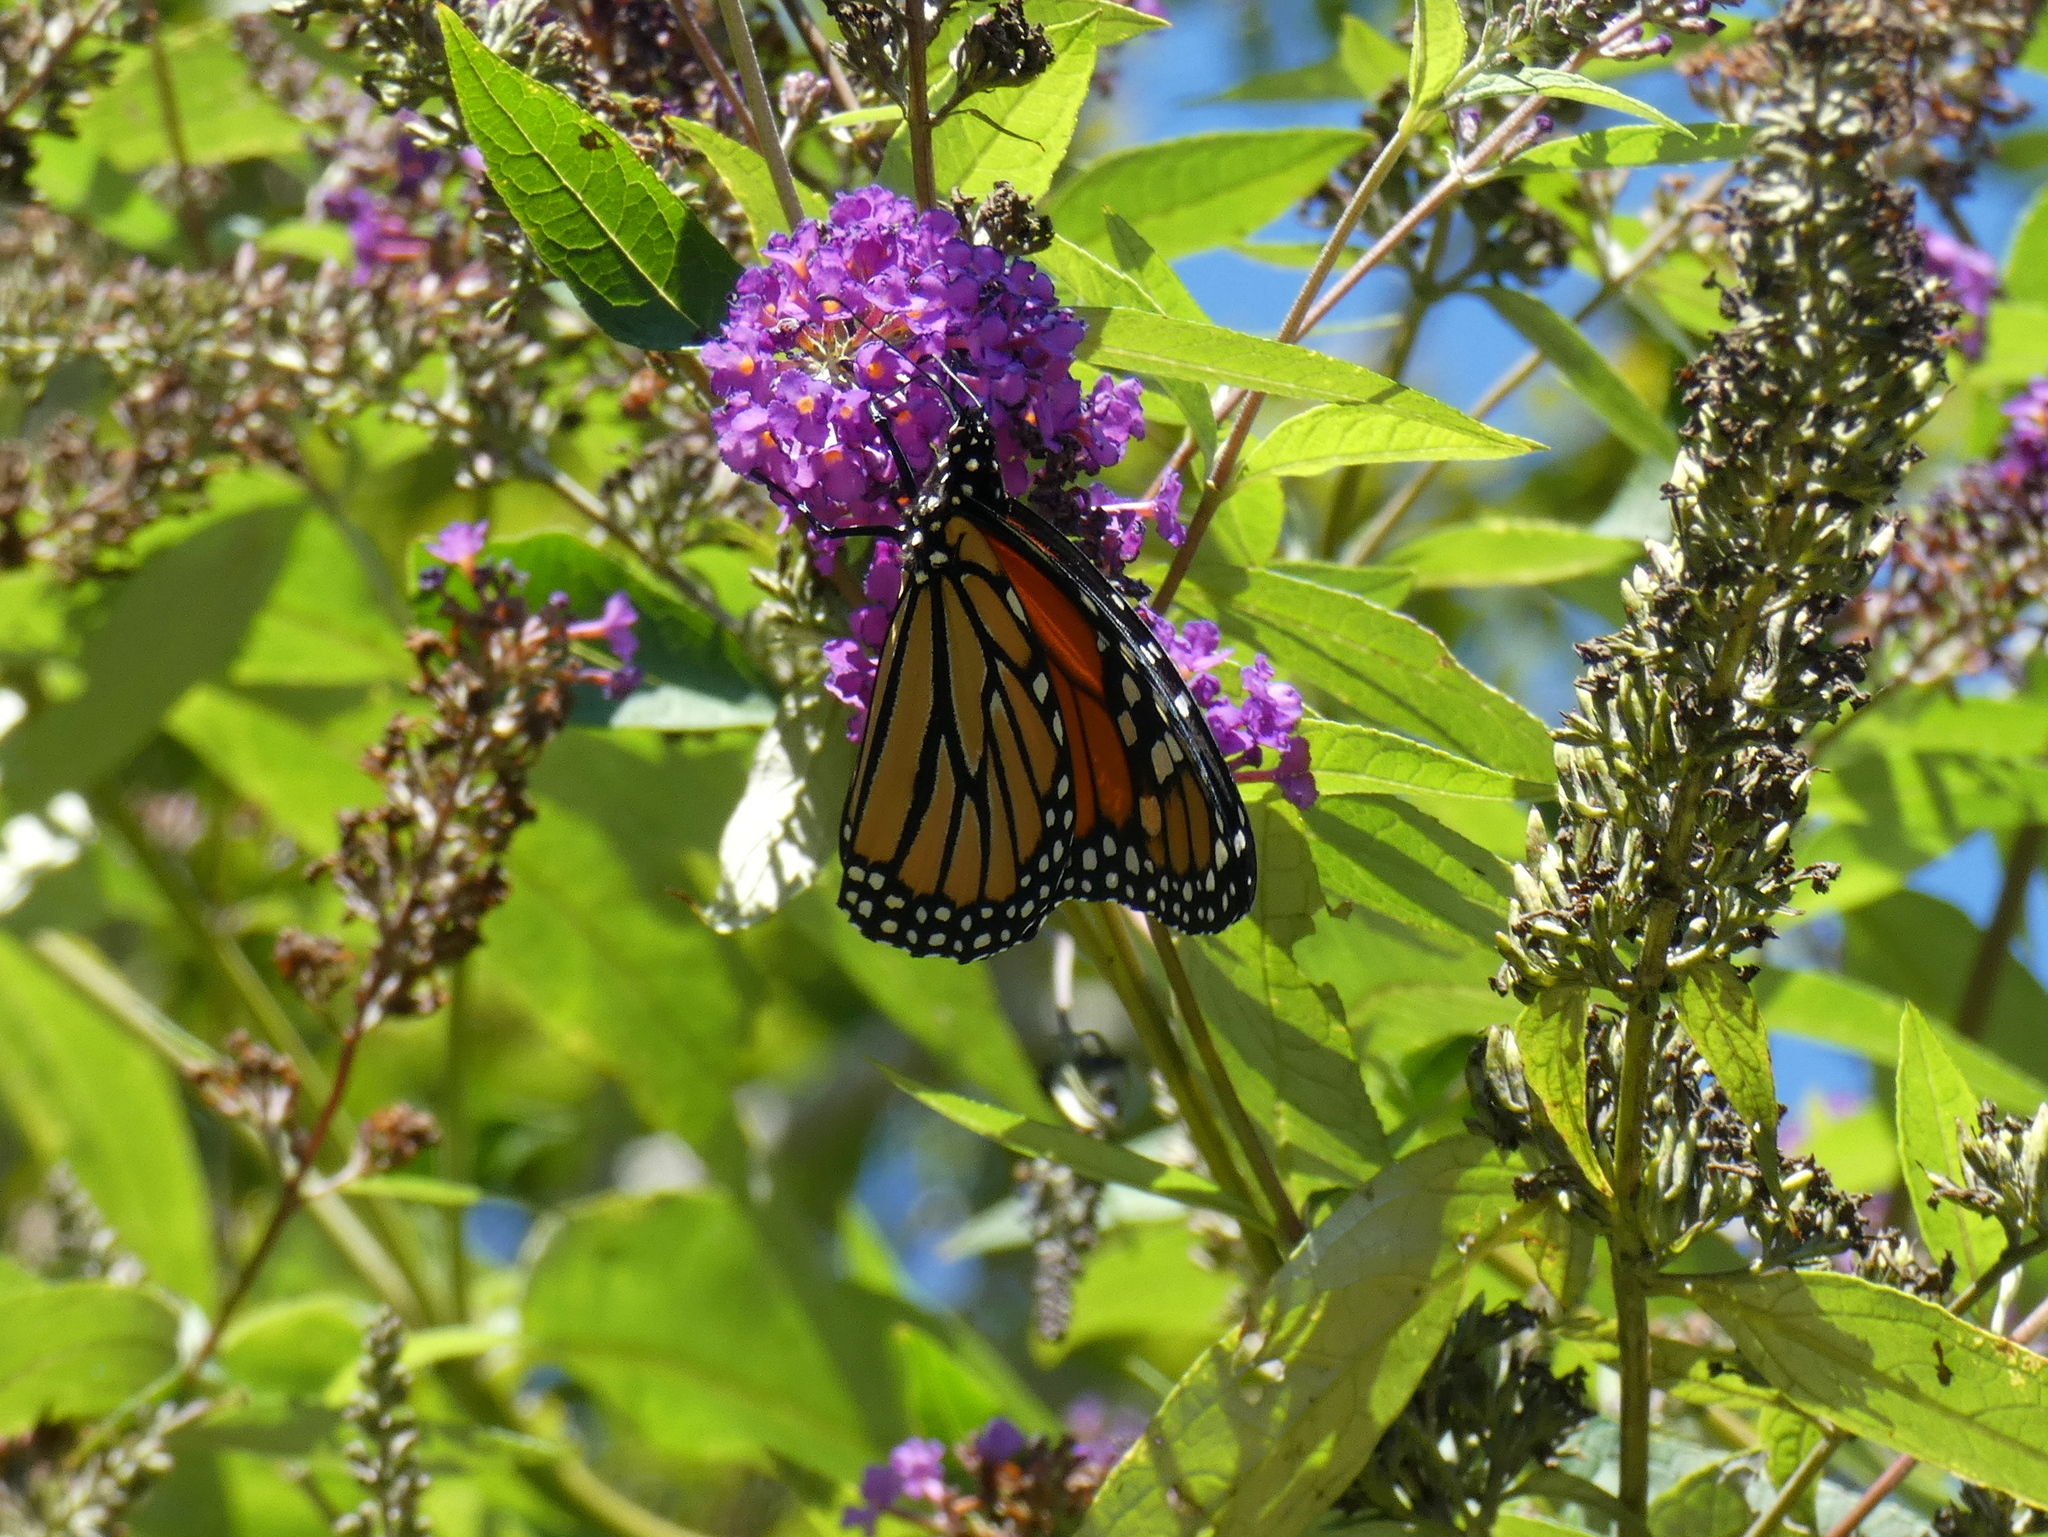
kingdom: Animalia
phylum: Arthropoda
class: Insecta
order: Lepidoptera
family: Nymphalidae
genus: Danaus
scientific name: Danaus plexippus
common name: Monarch
